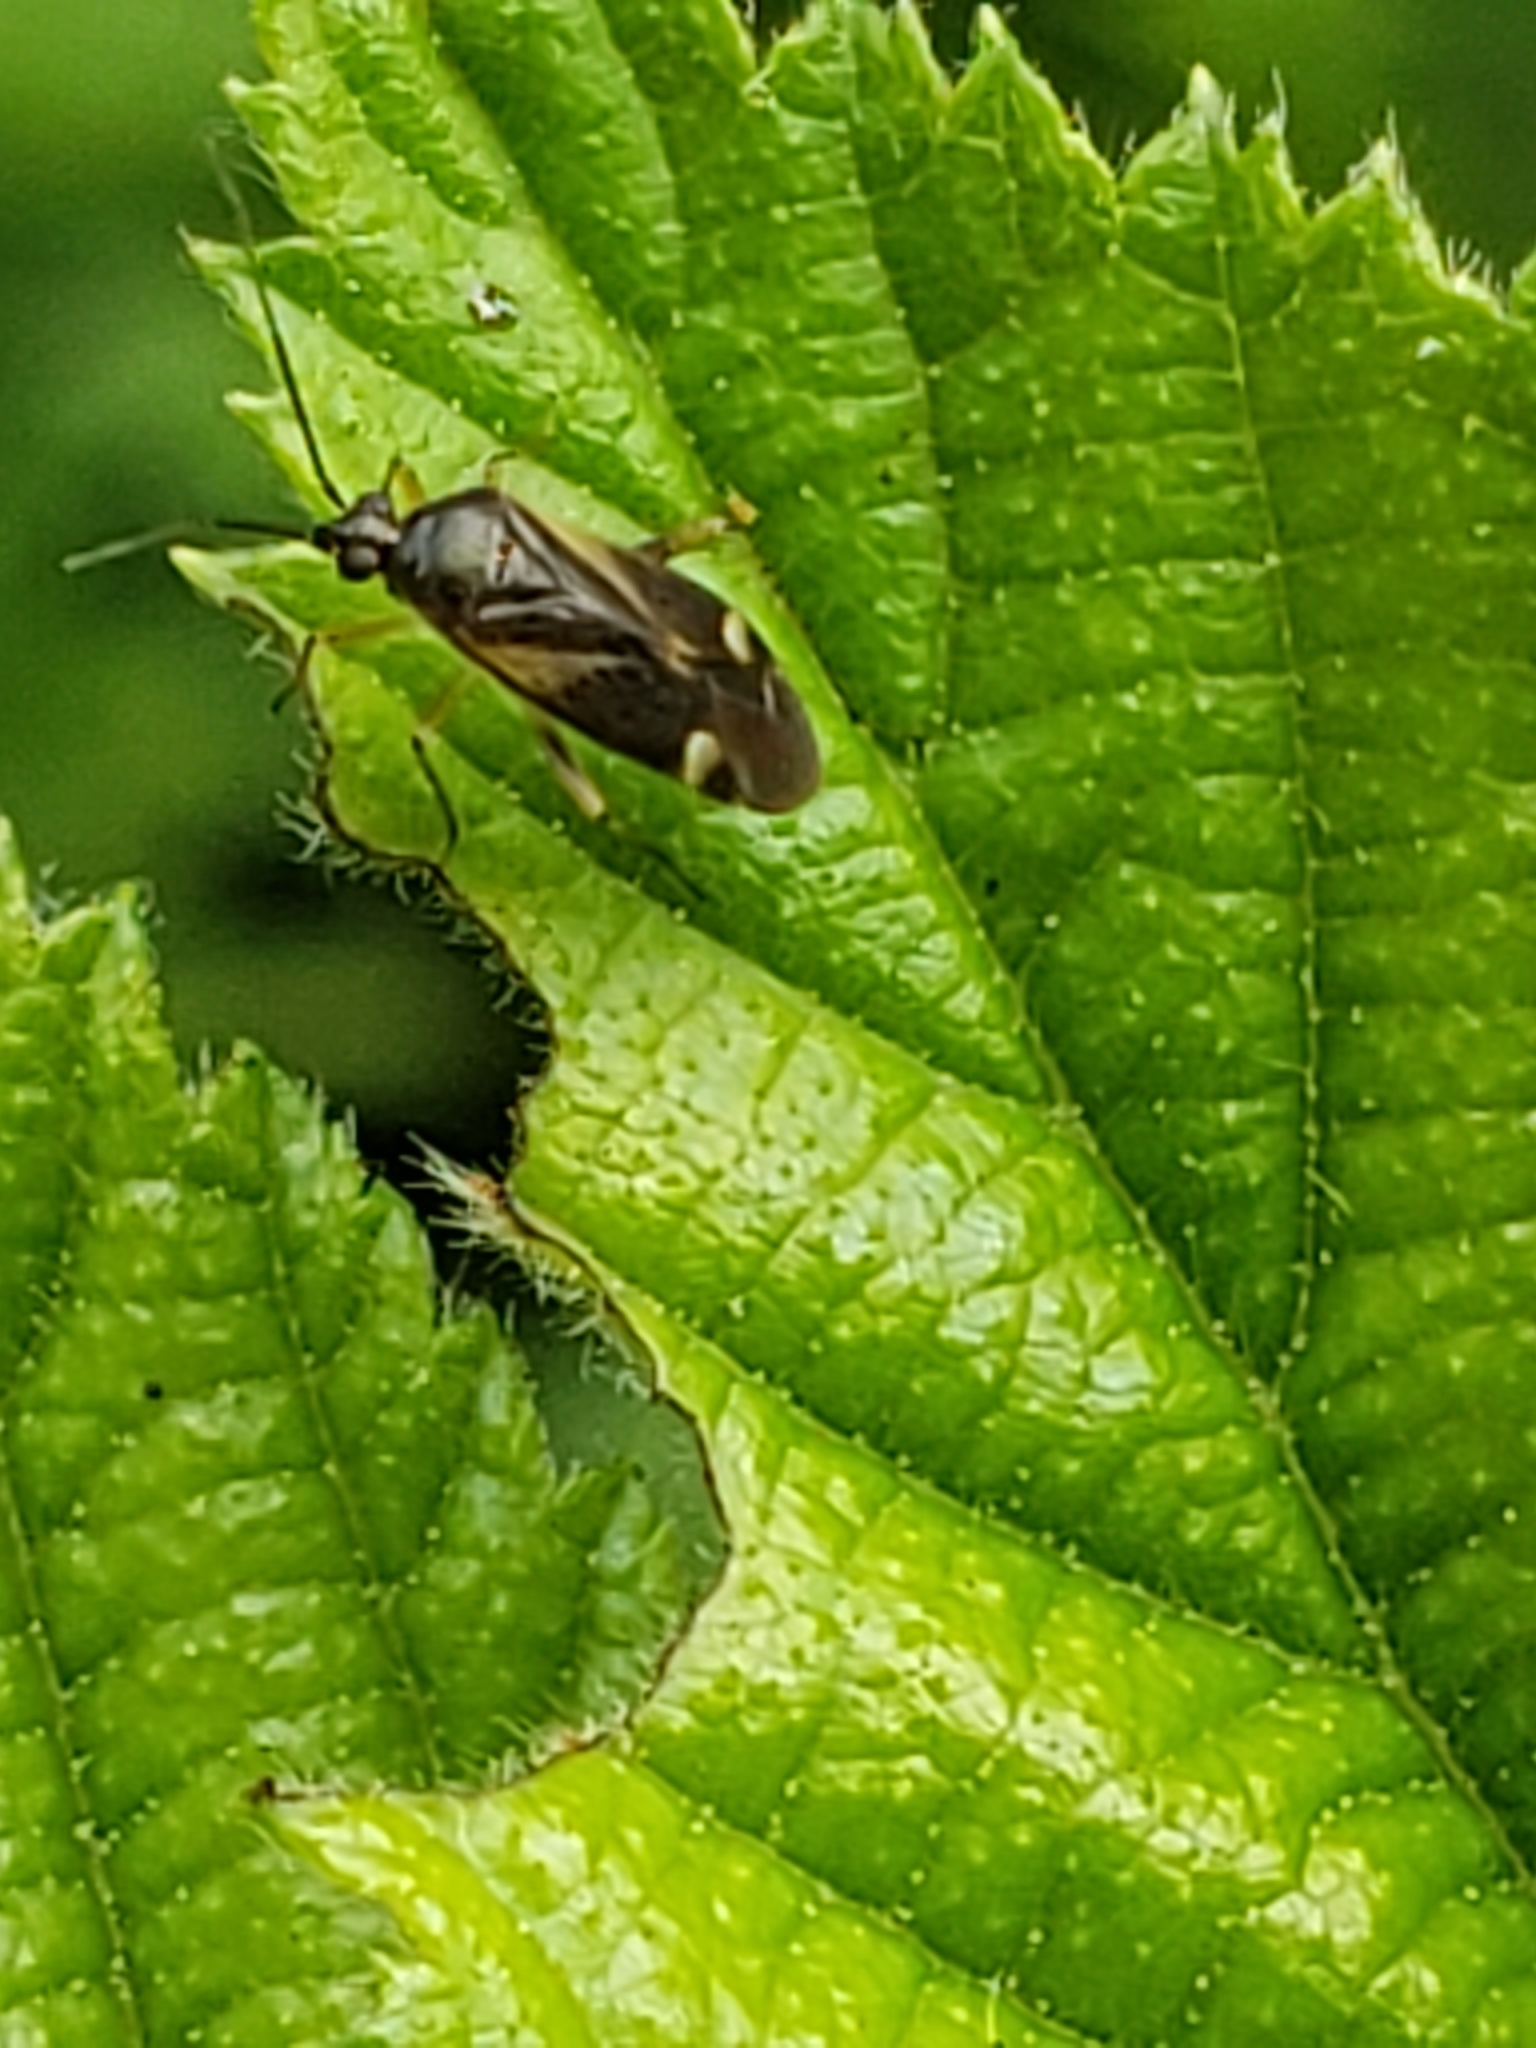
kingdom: Animalia
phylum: Arthropoda
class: Insecta
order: Hemiptera
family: Miridae
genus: Plagiognathus
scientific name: Plagiognathus obscurus
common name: Obscure plant bug
